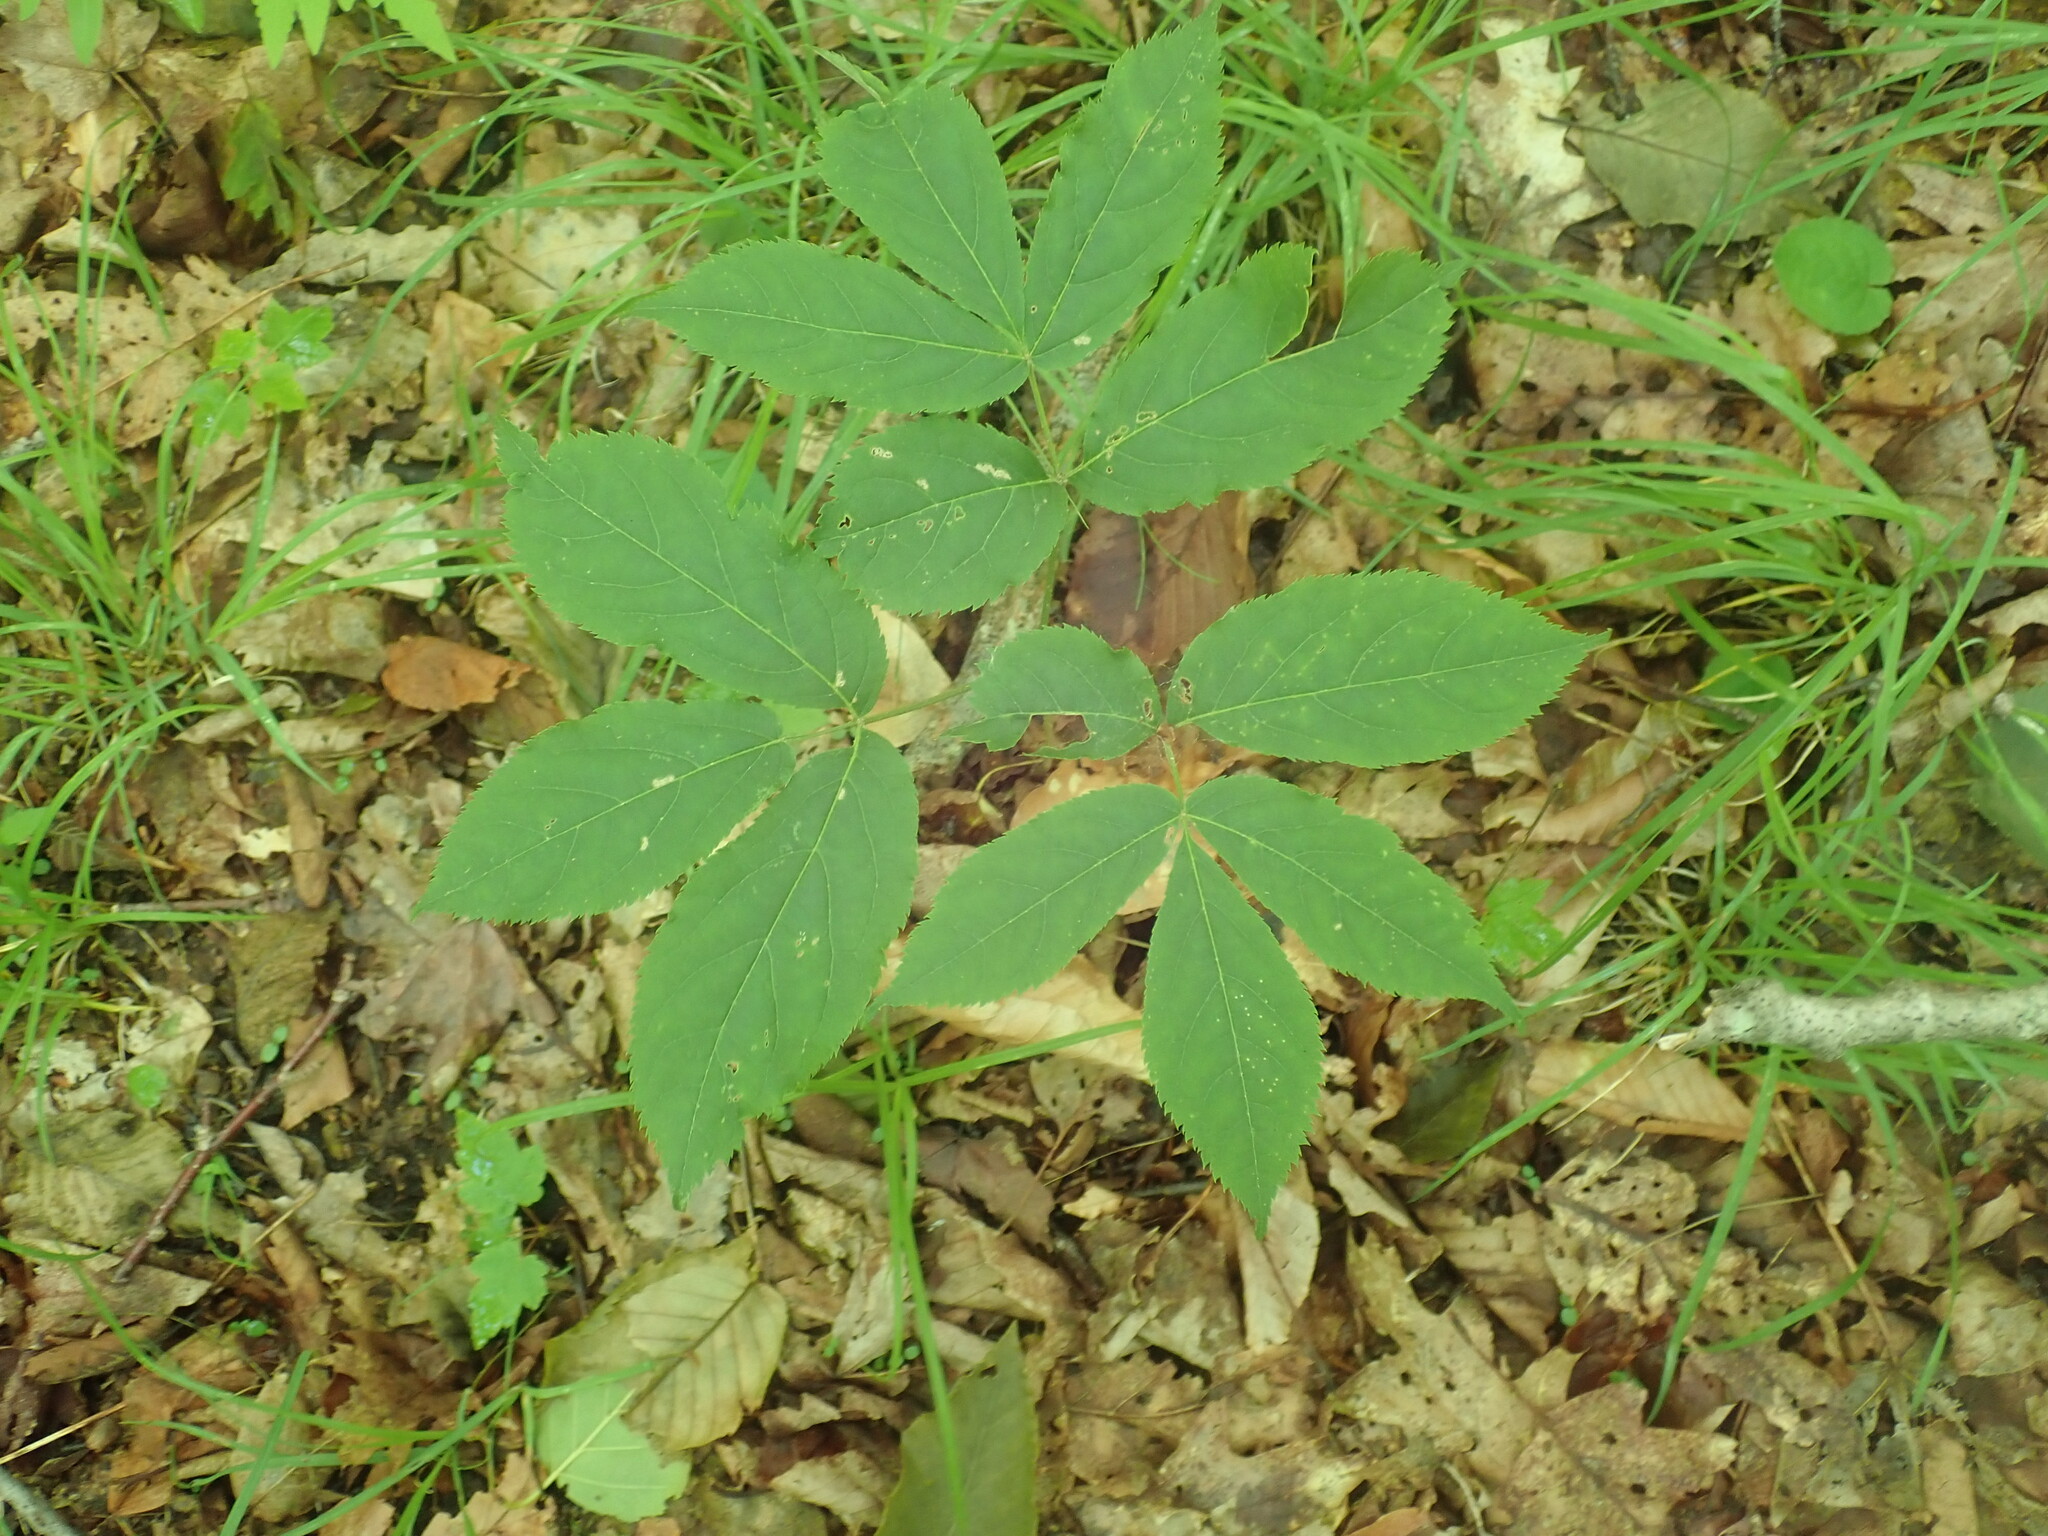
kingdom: Plantae
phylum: Tracheophyta
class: Magnoliopsida
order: Apiales
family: Araliaceae
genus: Aralia
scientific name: Aralia nudicaulis
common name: Wild sarsaparilla
